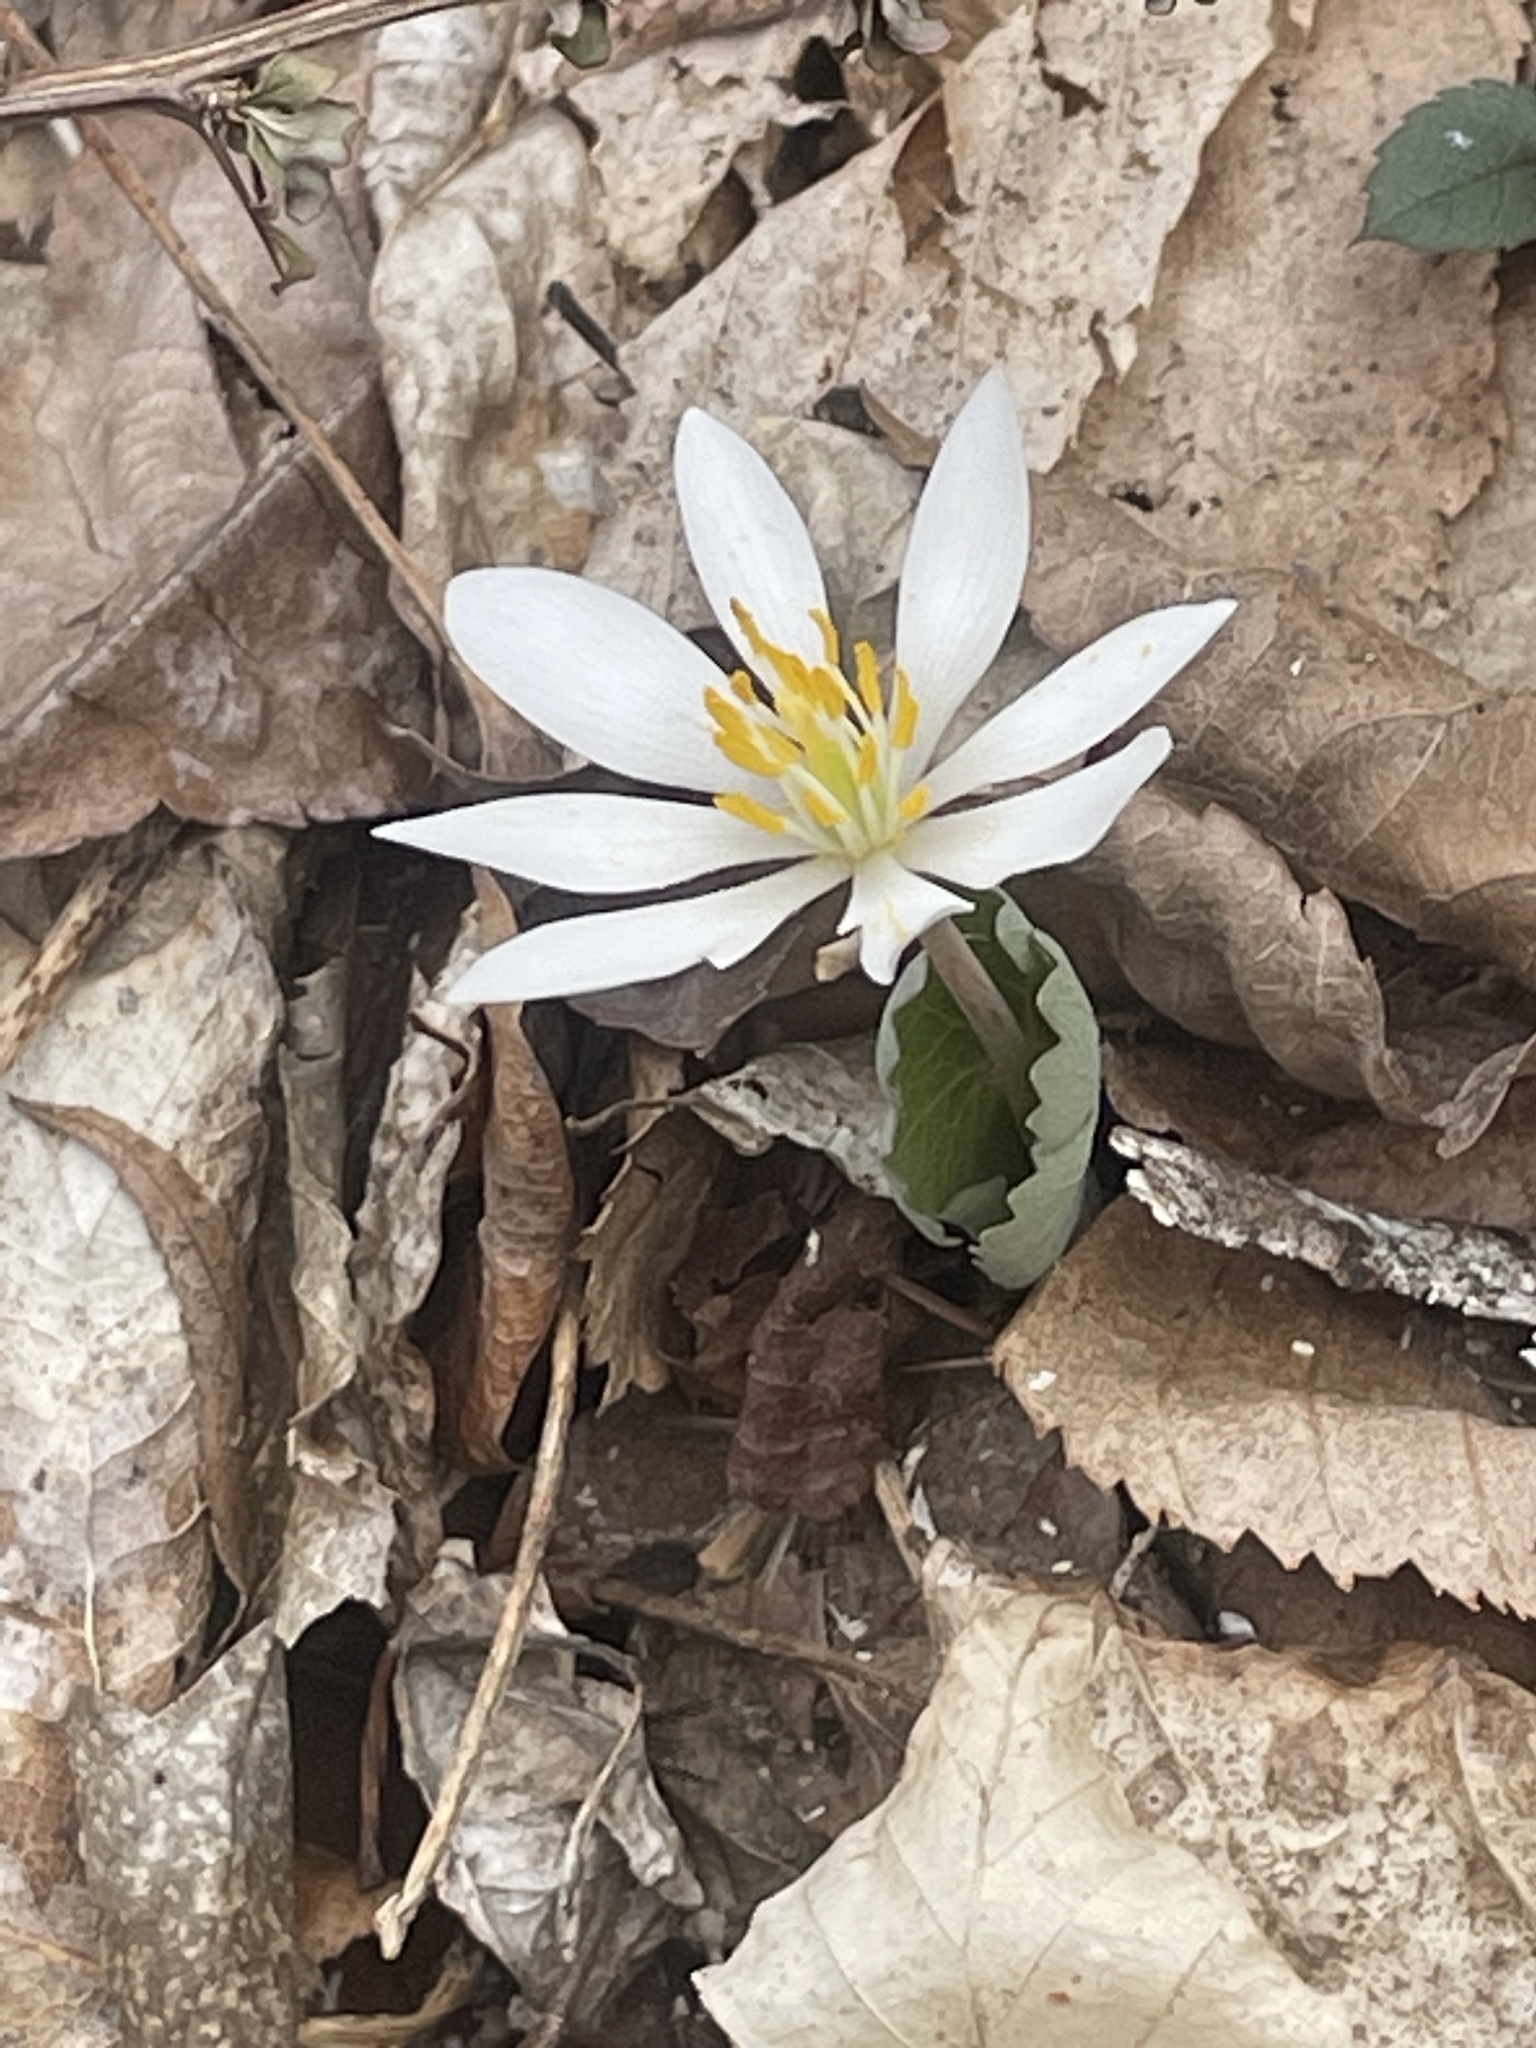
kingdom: Plantae
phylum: Tracheophyta
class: Magnoliopsida
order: Ranunculales
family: Papaveraceae
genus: Sanguinaria
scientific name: Sanguinaria canadensis
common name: Bloodroot
